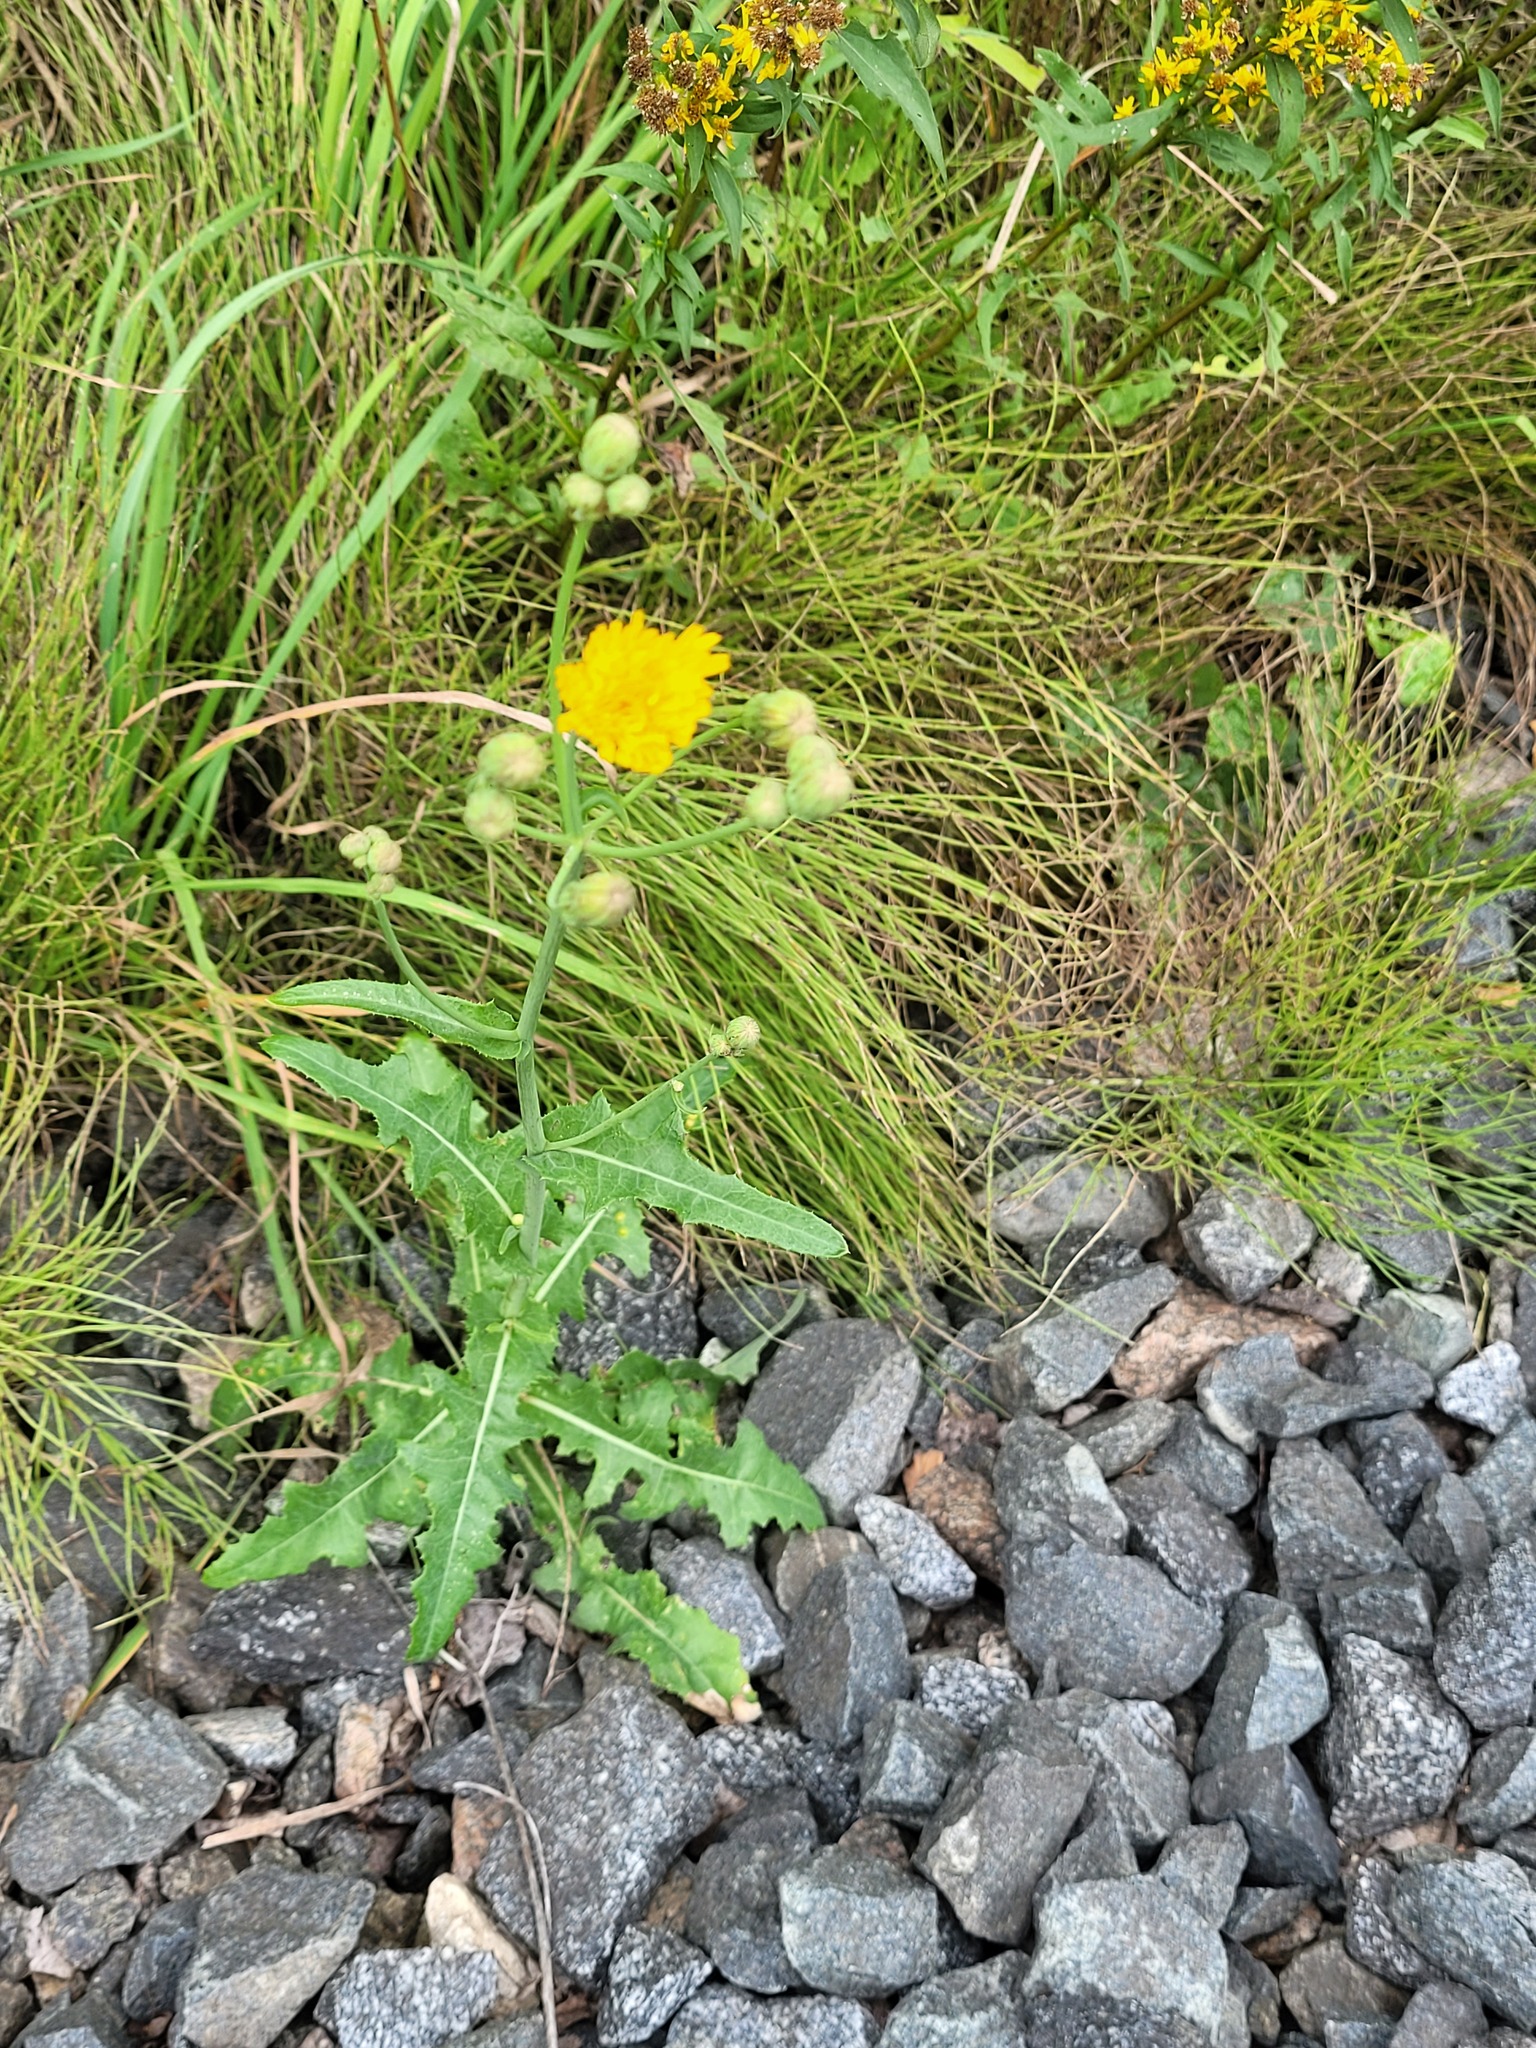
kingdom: Plantae
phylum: Tracheophyta
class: Magnoliopsida
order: Asterales
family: Asteraceae
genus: Sonchus
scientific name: Sonchus arvensis
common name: Perennial sow-thistle
